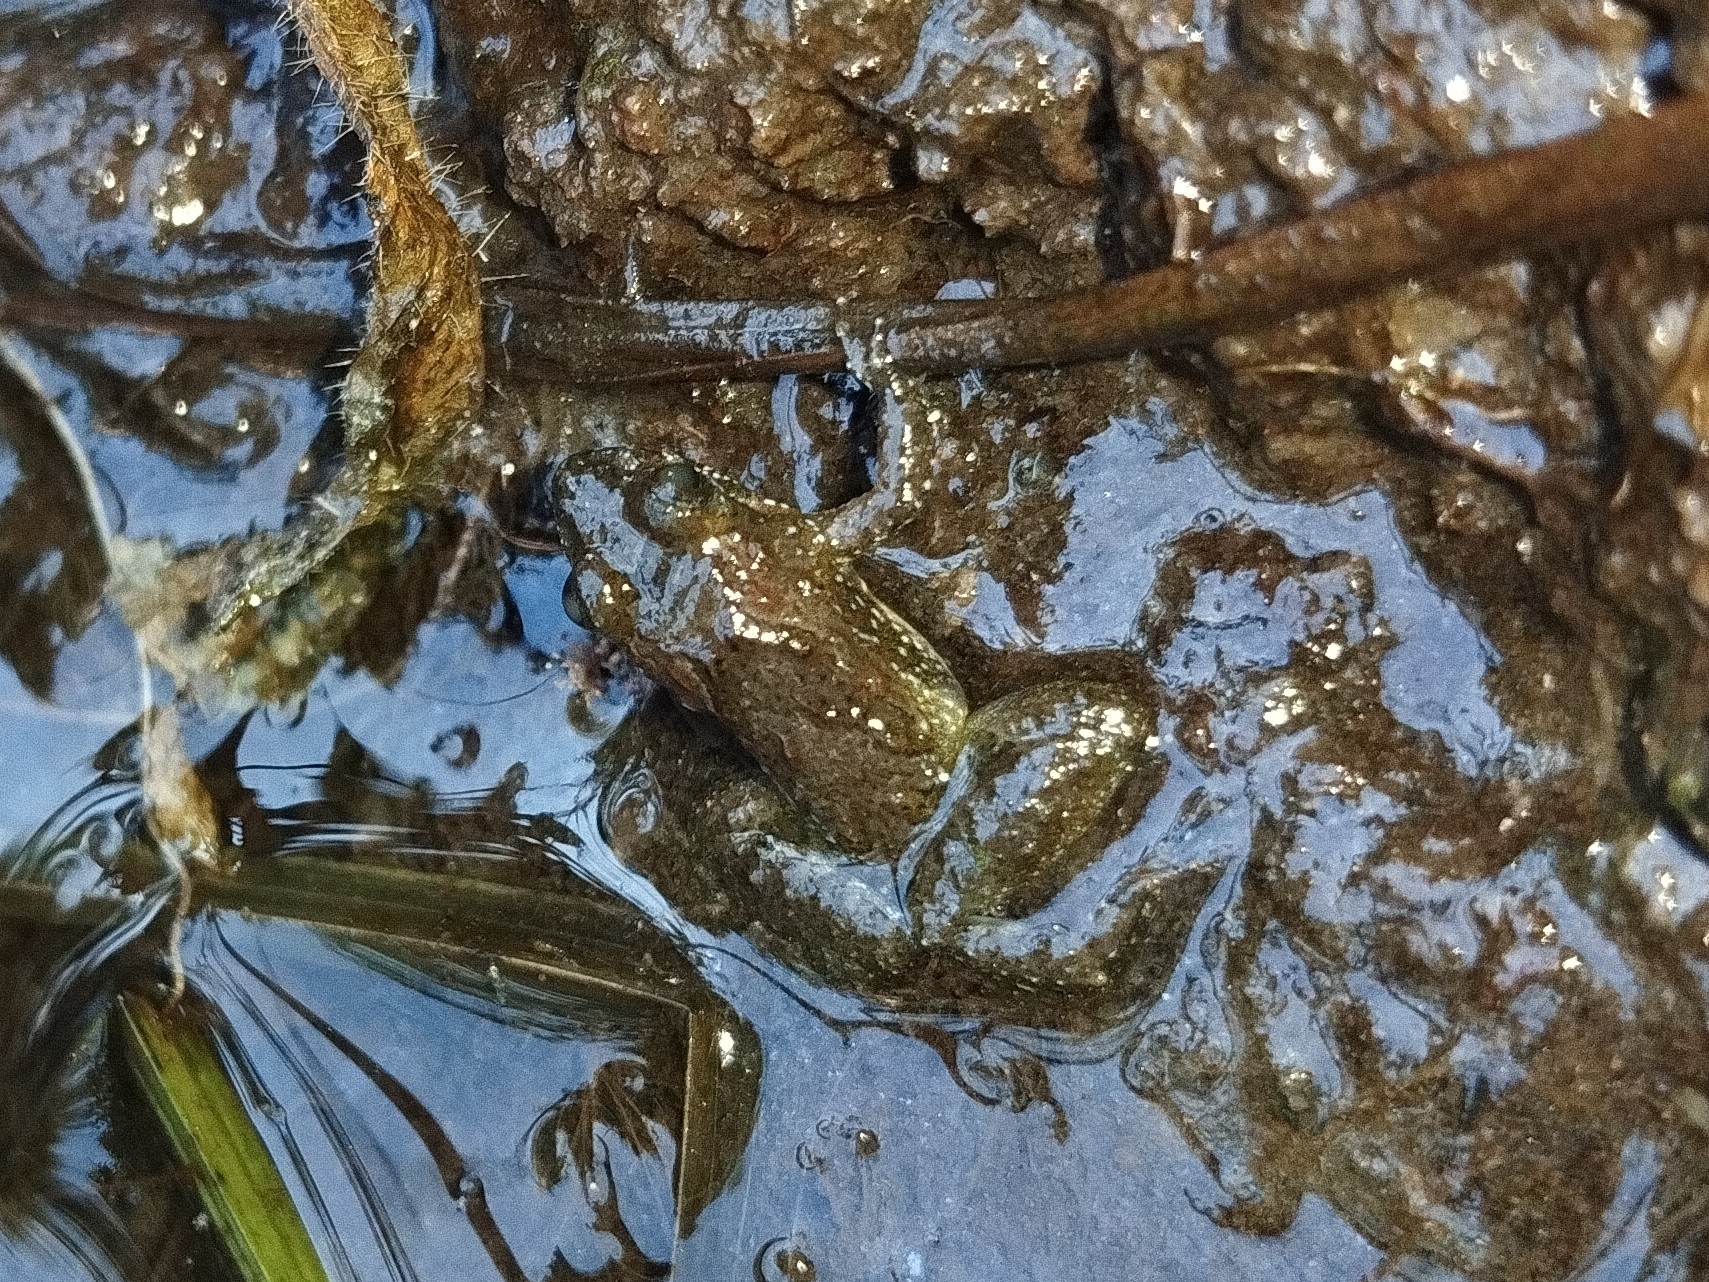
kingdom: Animalia
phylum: Chordata
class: Amphibia
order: Anura
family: Leptodactylidae
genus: Pseudopaludicola
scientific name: Pseudopaludicola restinga
